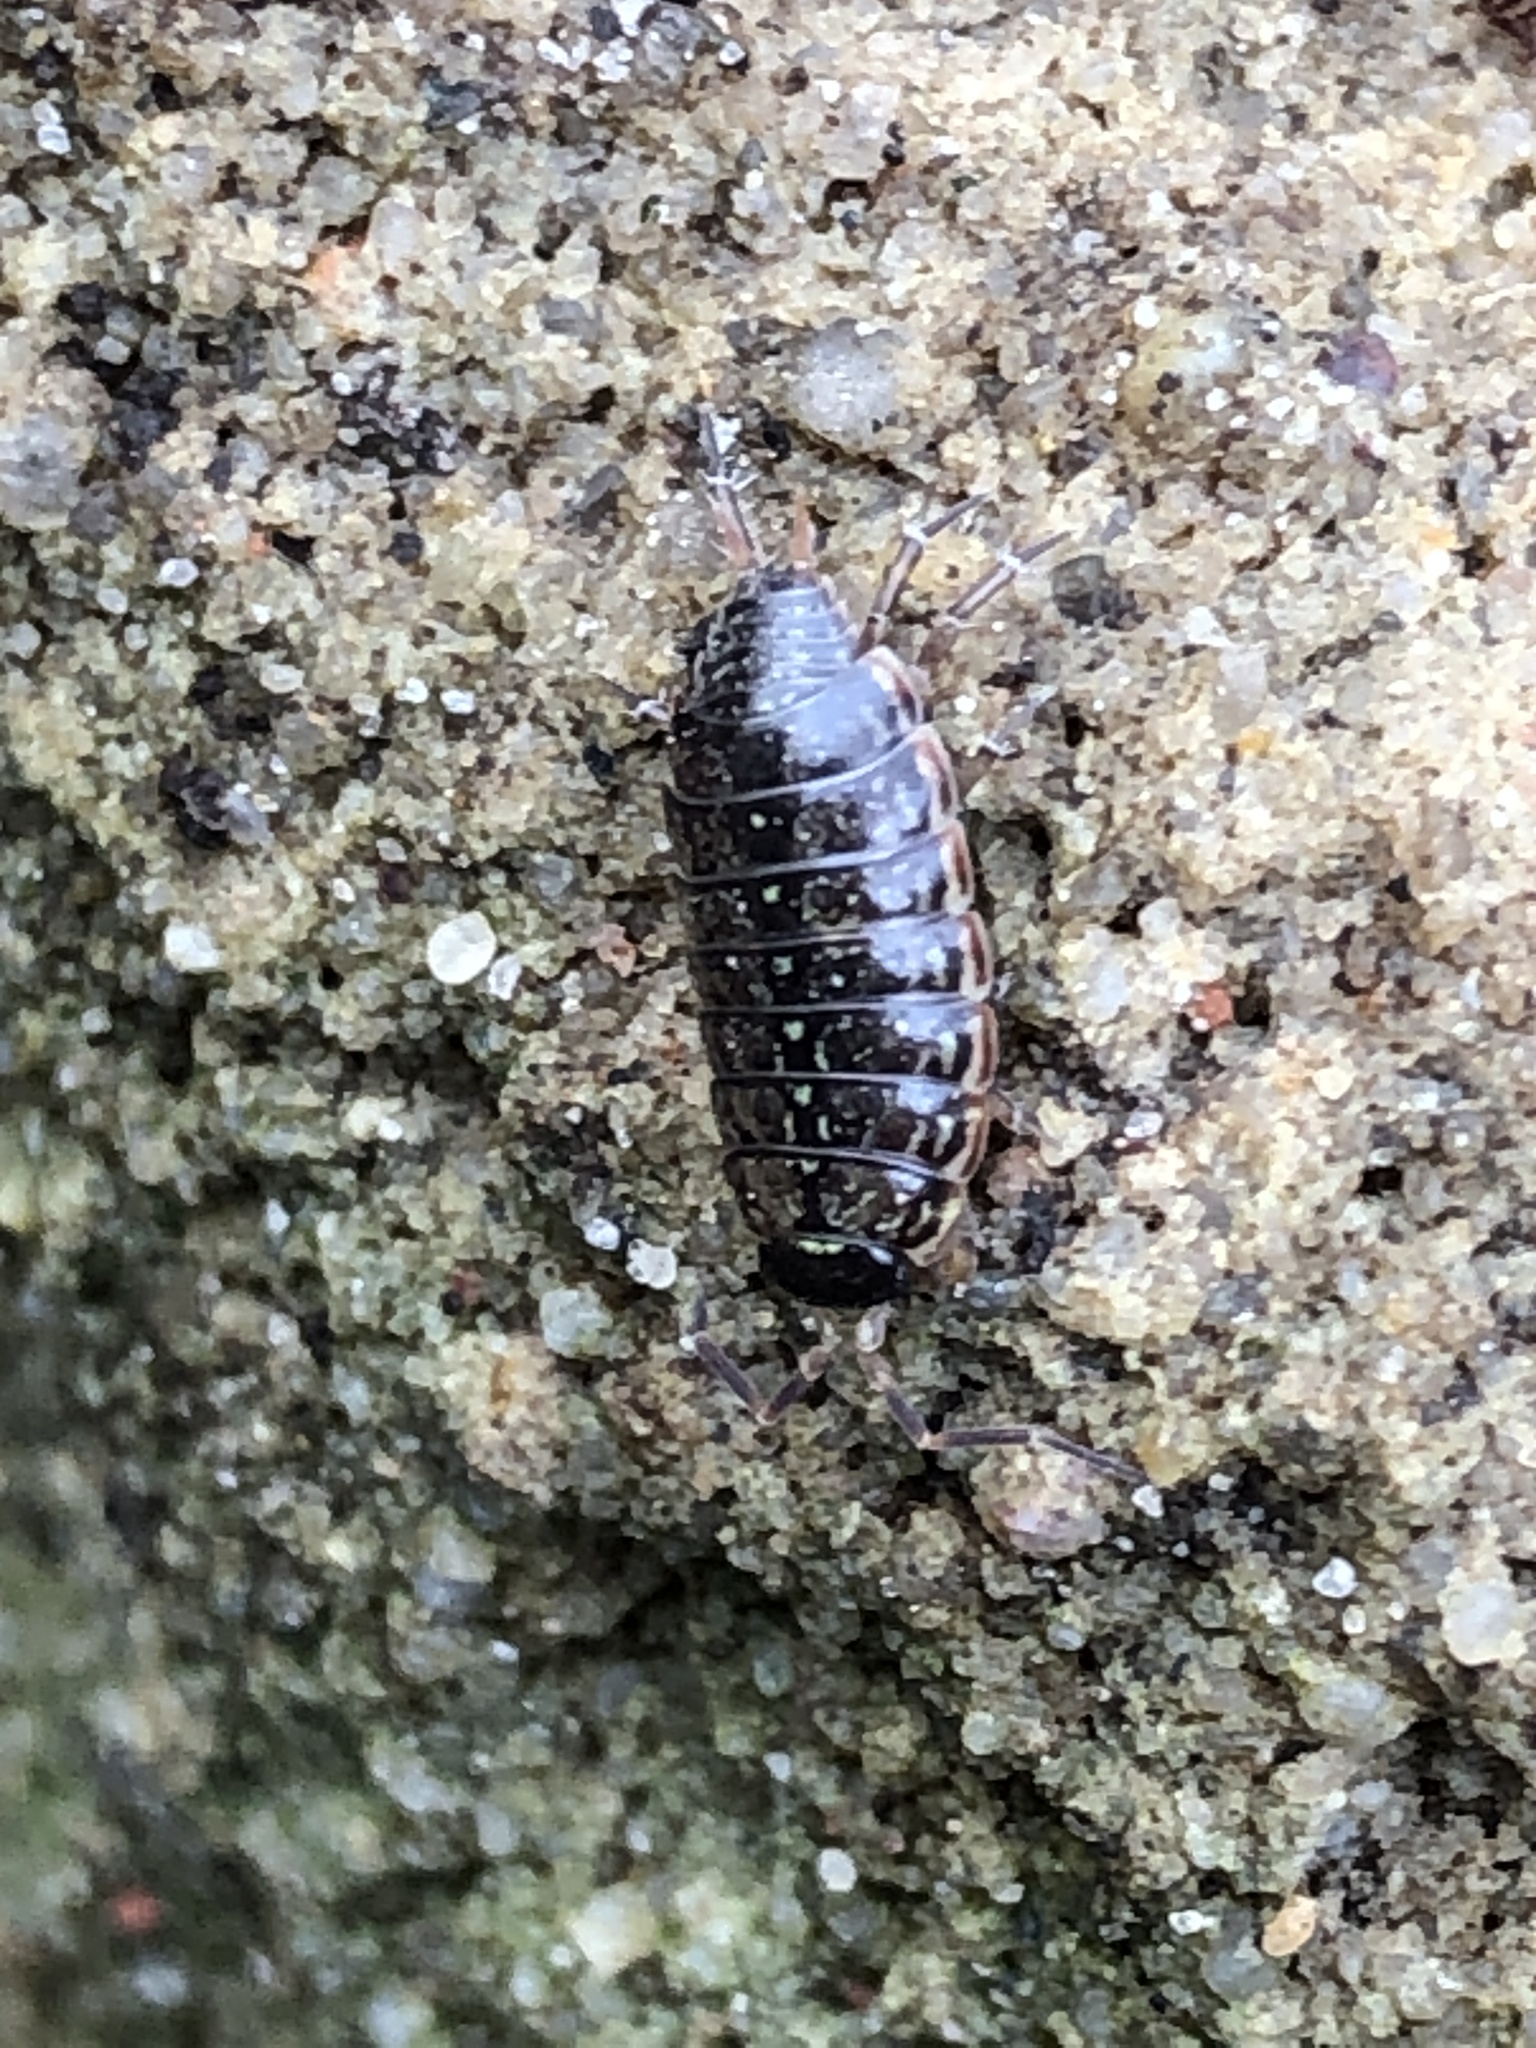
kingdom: Animalia
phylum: Arthropoda
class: Malacostraca
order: Isopoda
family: Philosciidae
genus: Philoscia
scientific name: Philoscia muscorum
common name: Common striped woodlouse
